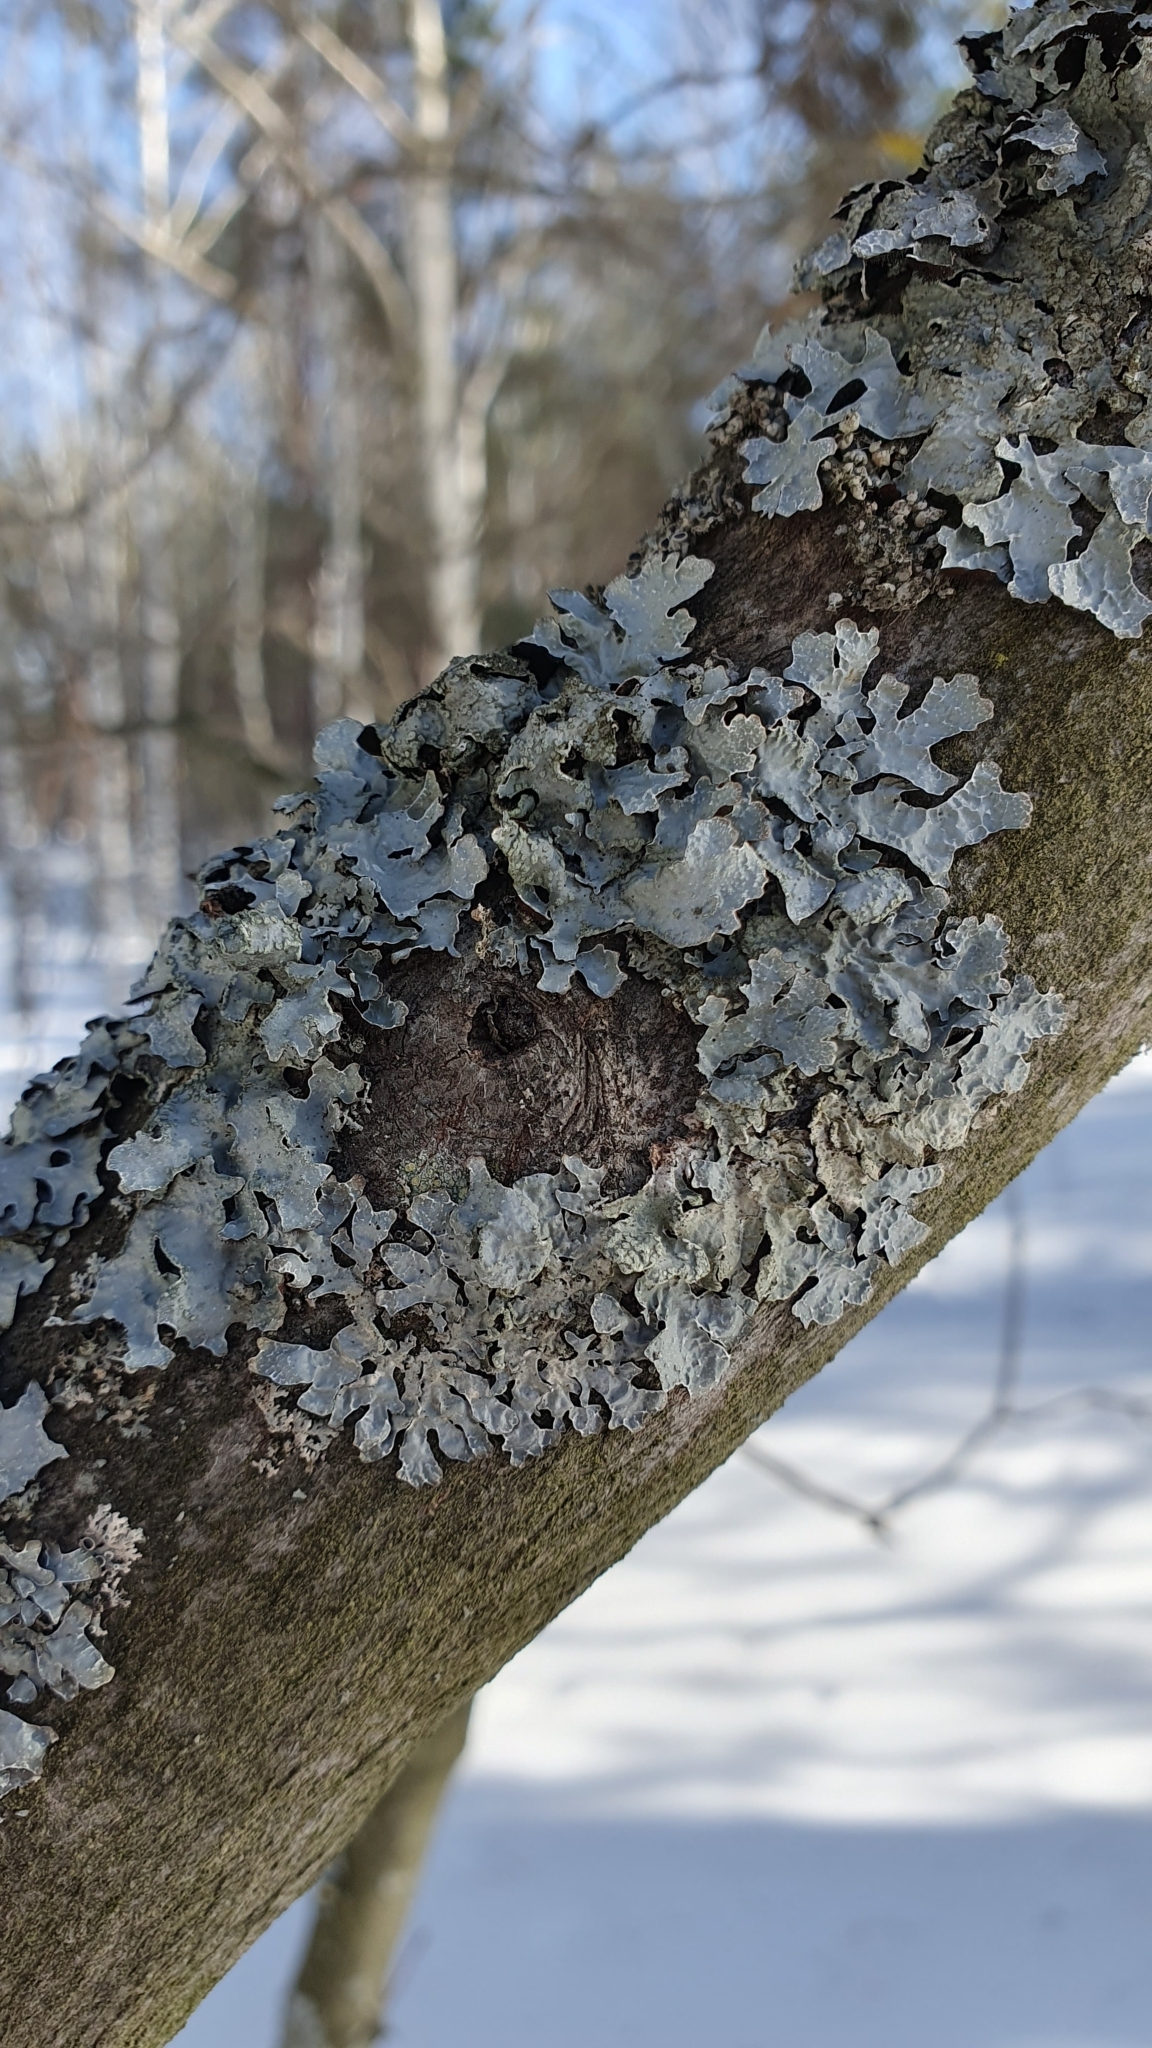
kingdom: Fungi
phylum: Ascomycota
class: Lecanoromycetes
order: Lecanorales
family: Parmeliaceae
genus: Parmelia
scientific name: Parmelia sulcata
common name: Netted shield lichen
